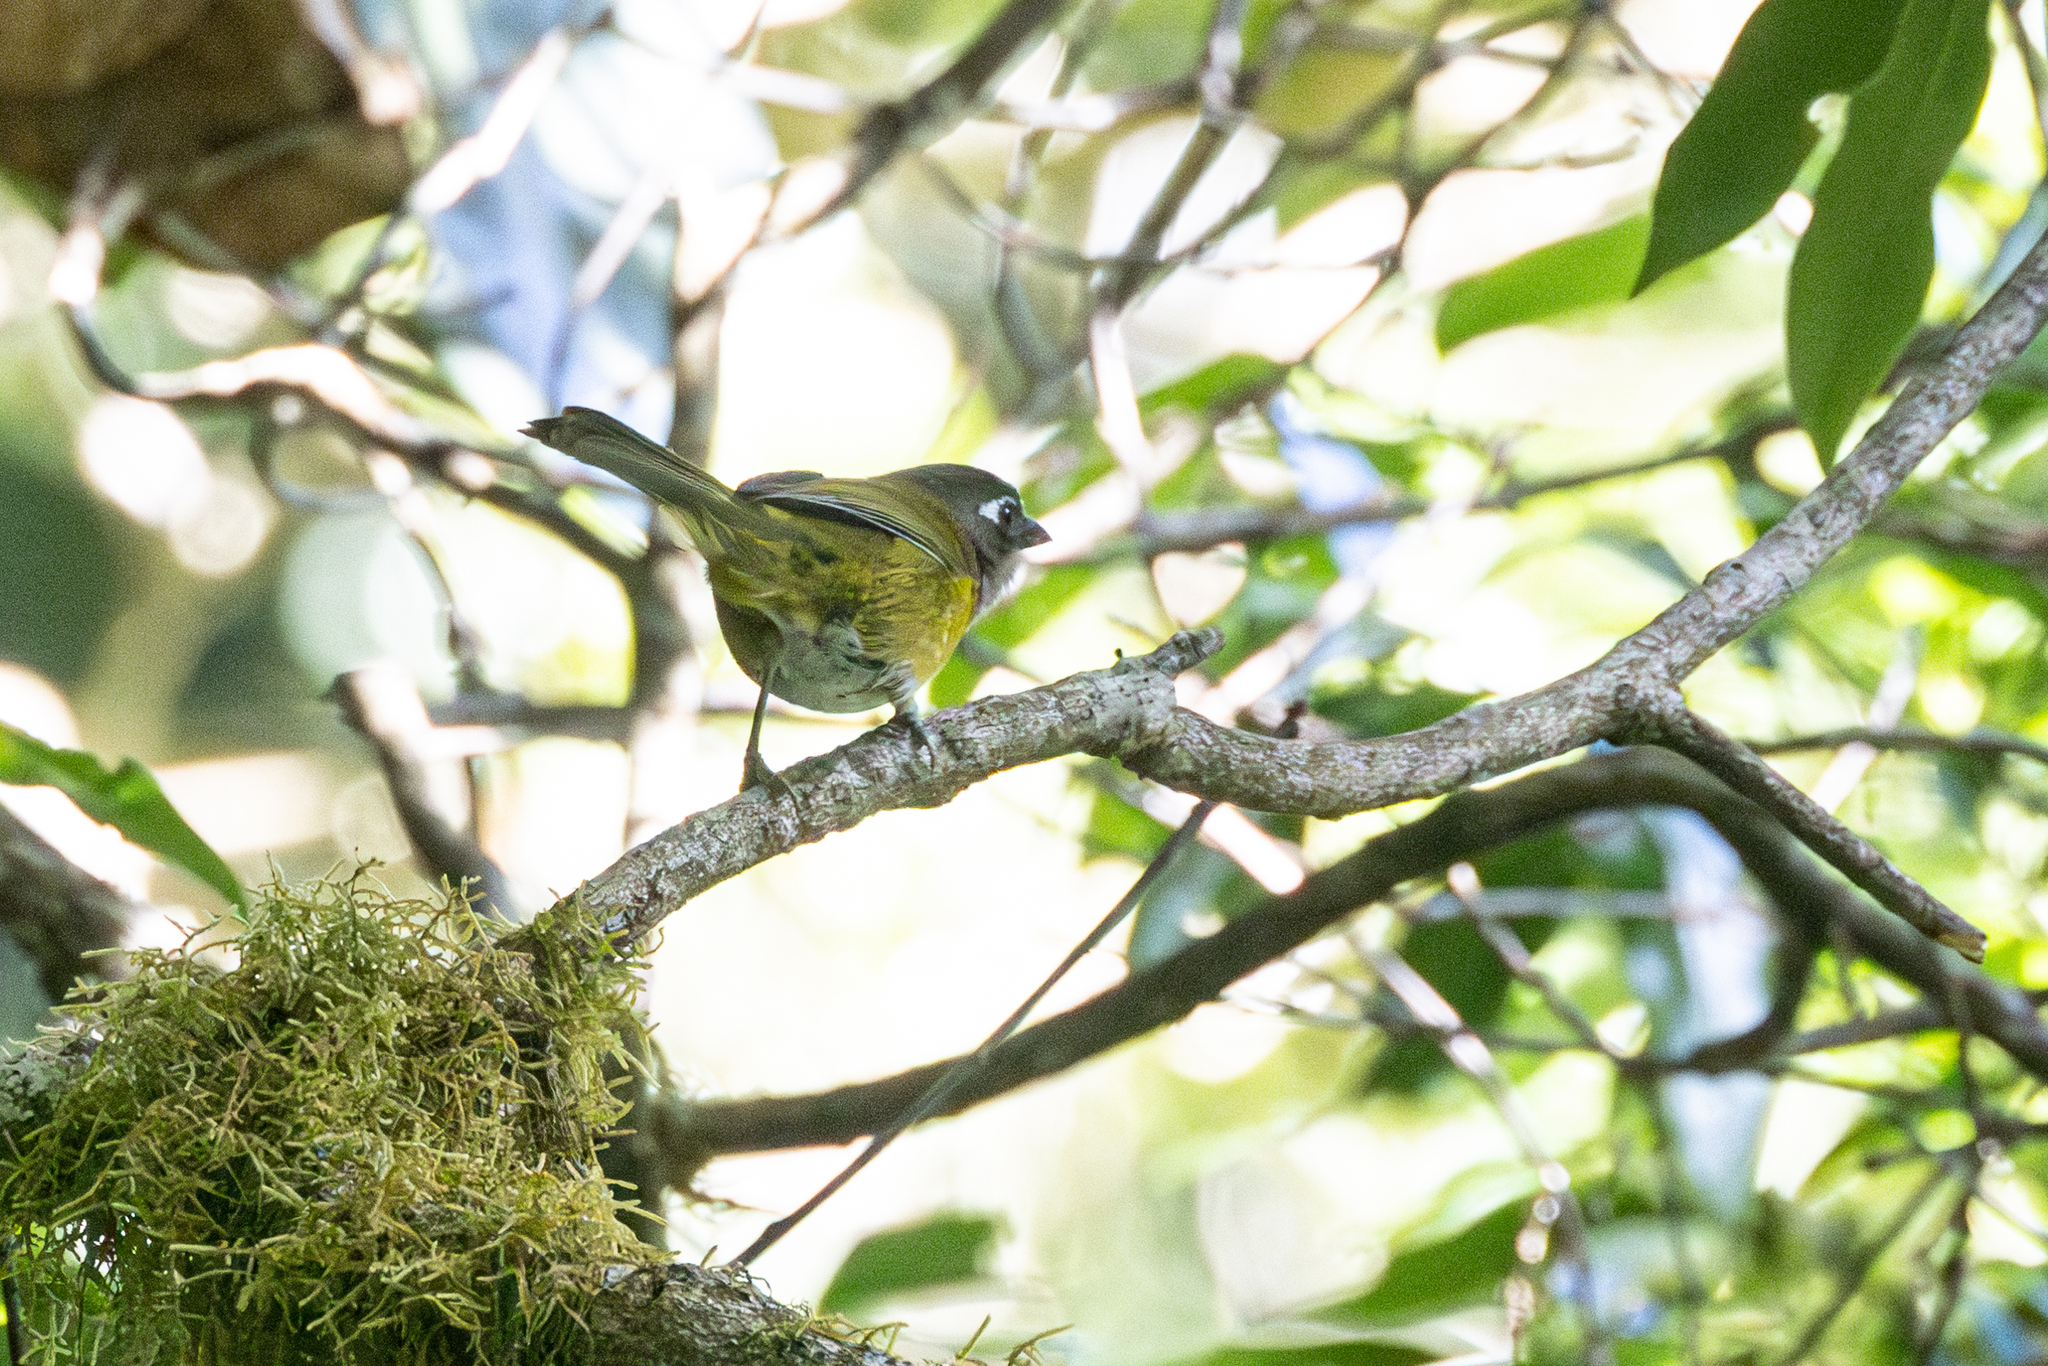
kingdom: Animalia
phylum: Chordata
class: Aves
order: Passeriformes
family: Passerellidae
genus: Chlorospingus
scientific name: Chlorospingus flavopectus
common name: Common chlorospingus
